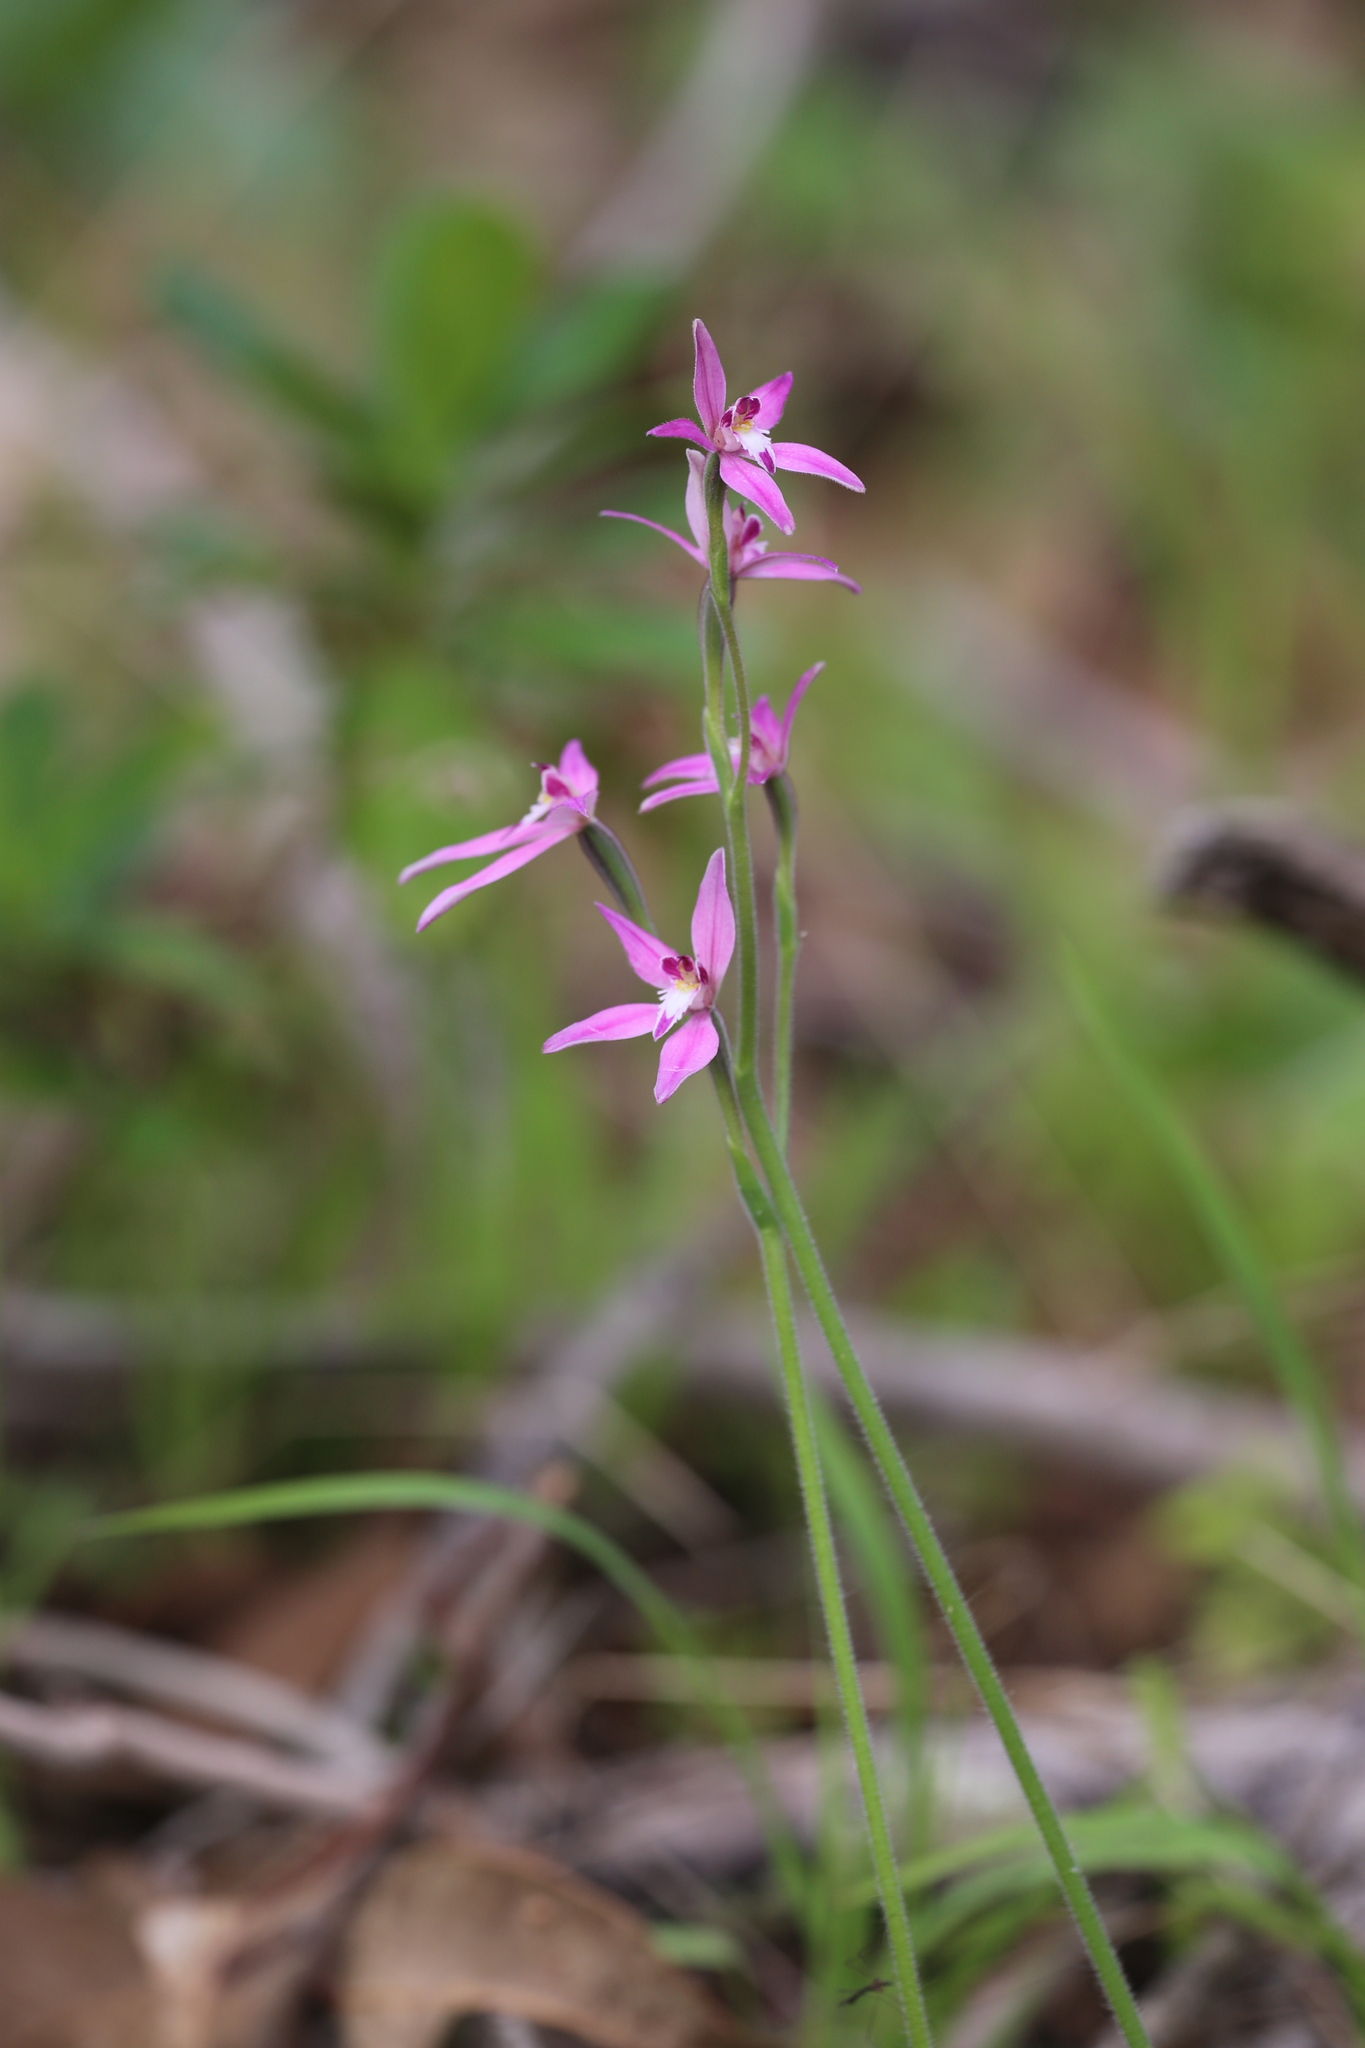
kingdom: Plantae
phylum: Tracheophyta
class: Liliopsida
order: Asparagales
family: Orchidaceae
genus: Caladenia
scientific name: Caladenia latifolia
